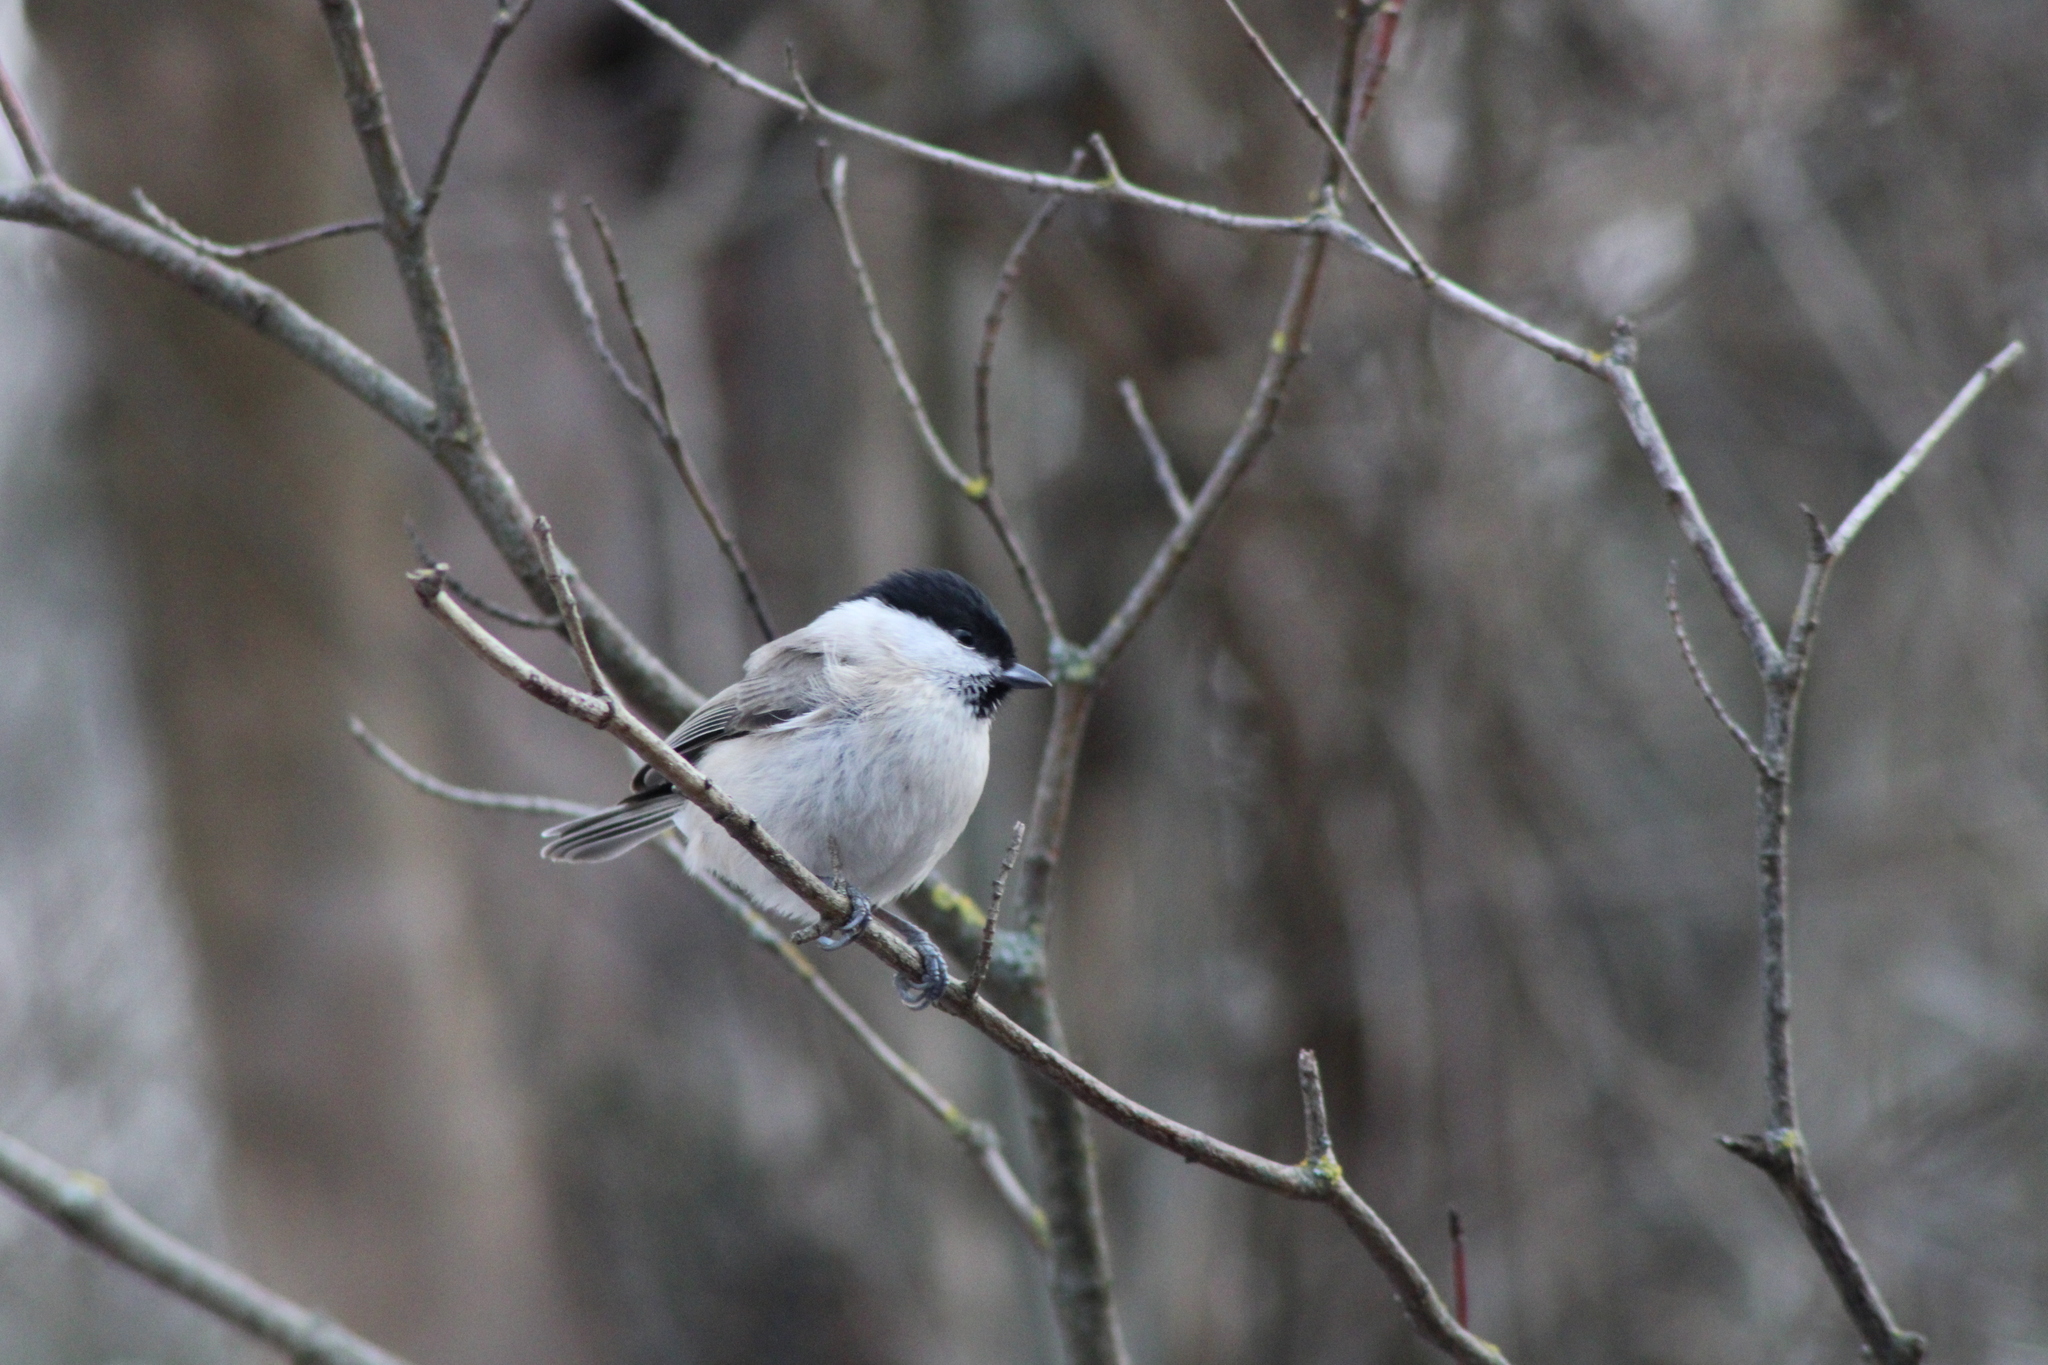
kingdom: Animalia
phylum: Chordata
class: Aves
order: Passeriformes
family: Paridae
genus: Poecile
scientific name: Poecile palustris
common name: Marsh tit
